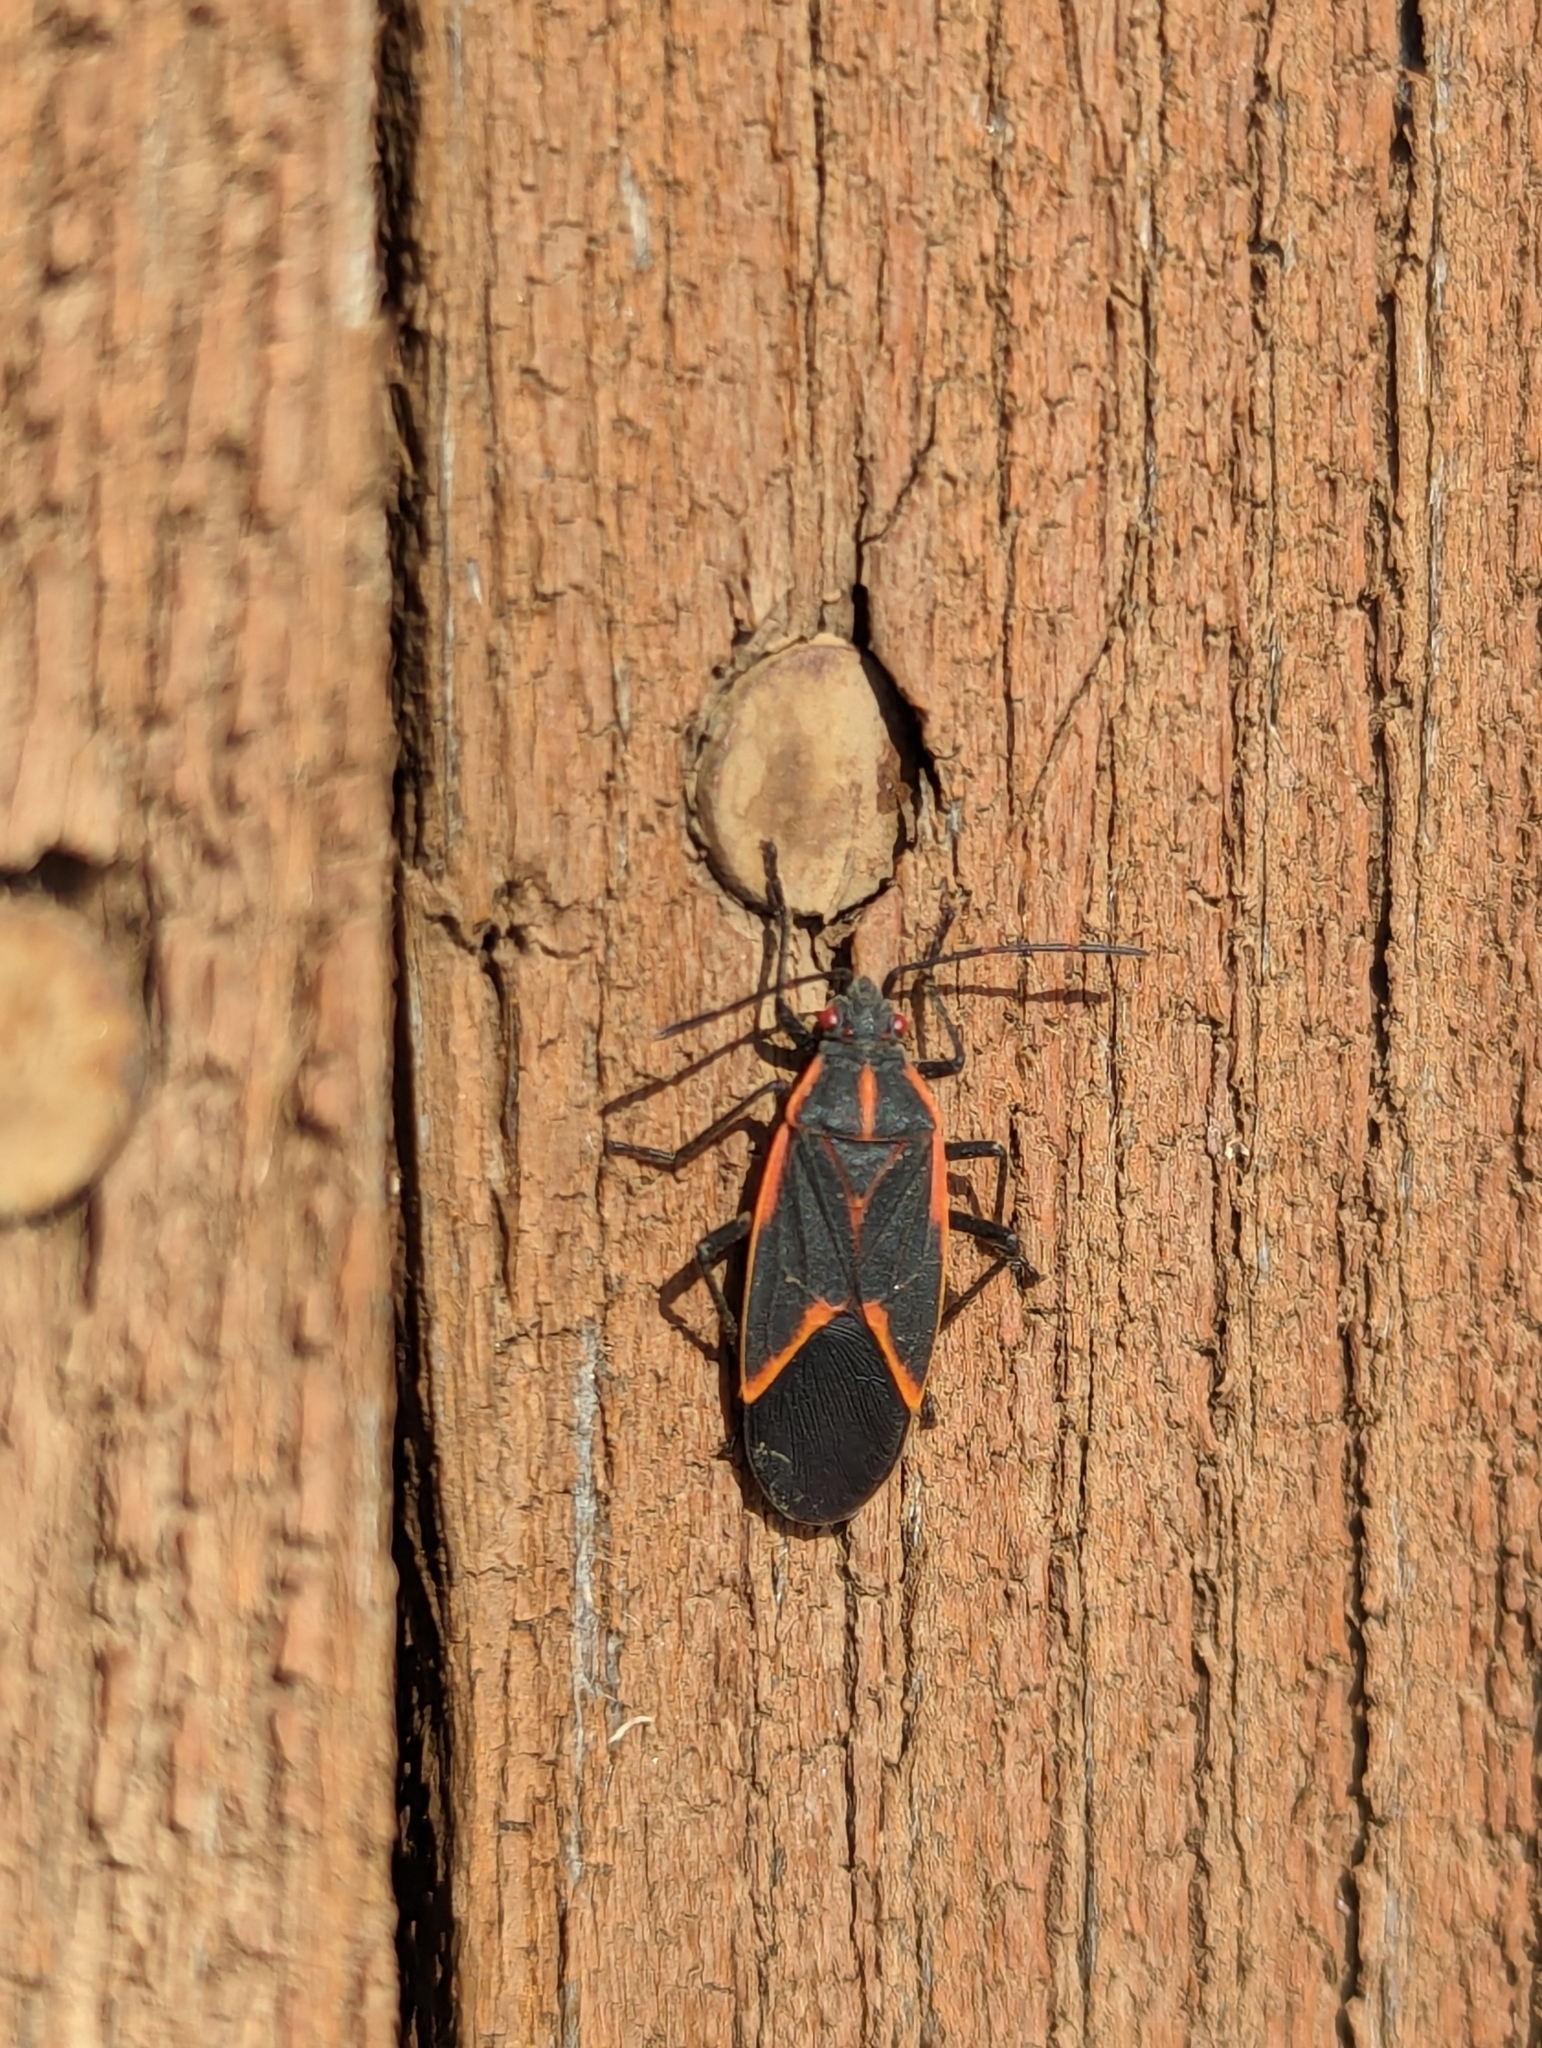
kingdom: Animalia
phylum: Arthropoda
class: Insecta
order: Hemiptera
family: Rhopalidae
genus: Boisea
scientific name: Boisea trivittata
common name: Boxelder bug
